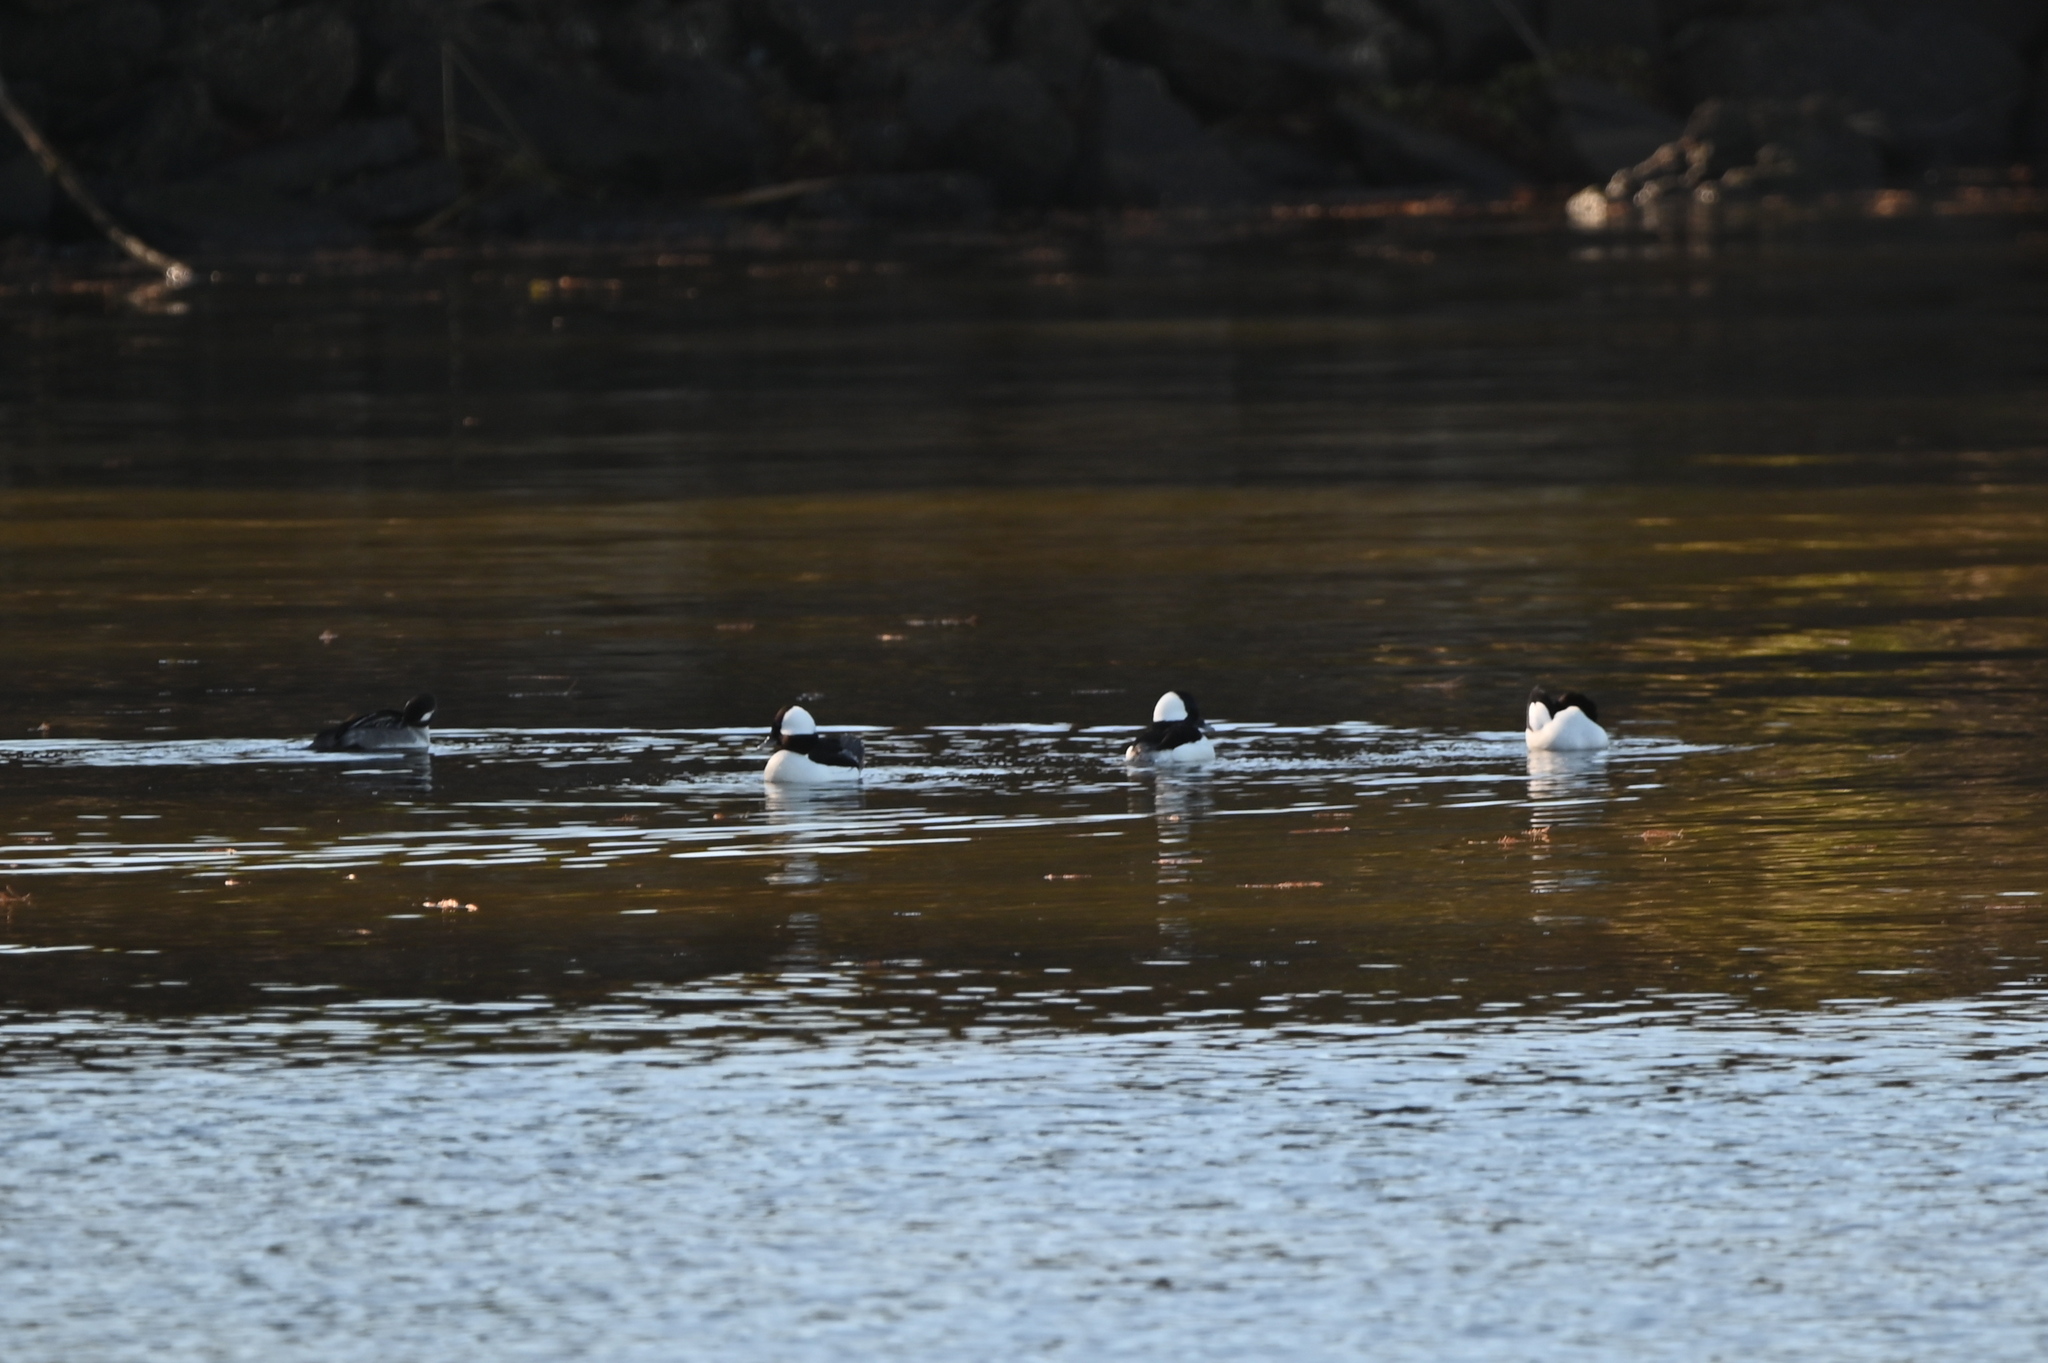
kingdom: Animalia
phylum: Chordata
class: Aves
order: Anseriformes
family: Anatidae
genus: Bucephala
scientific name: Bucephala albeola
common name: Bufflehead
